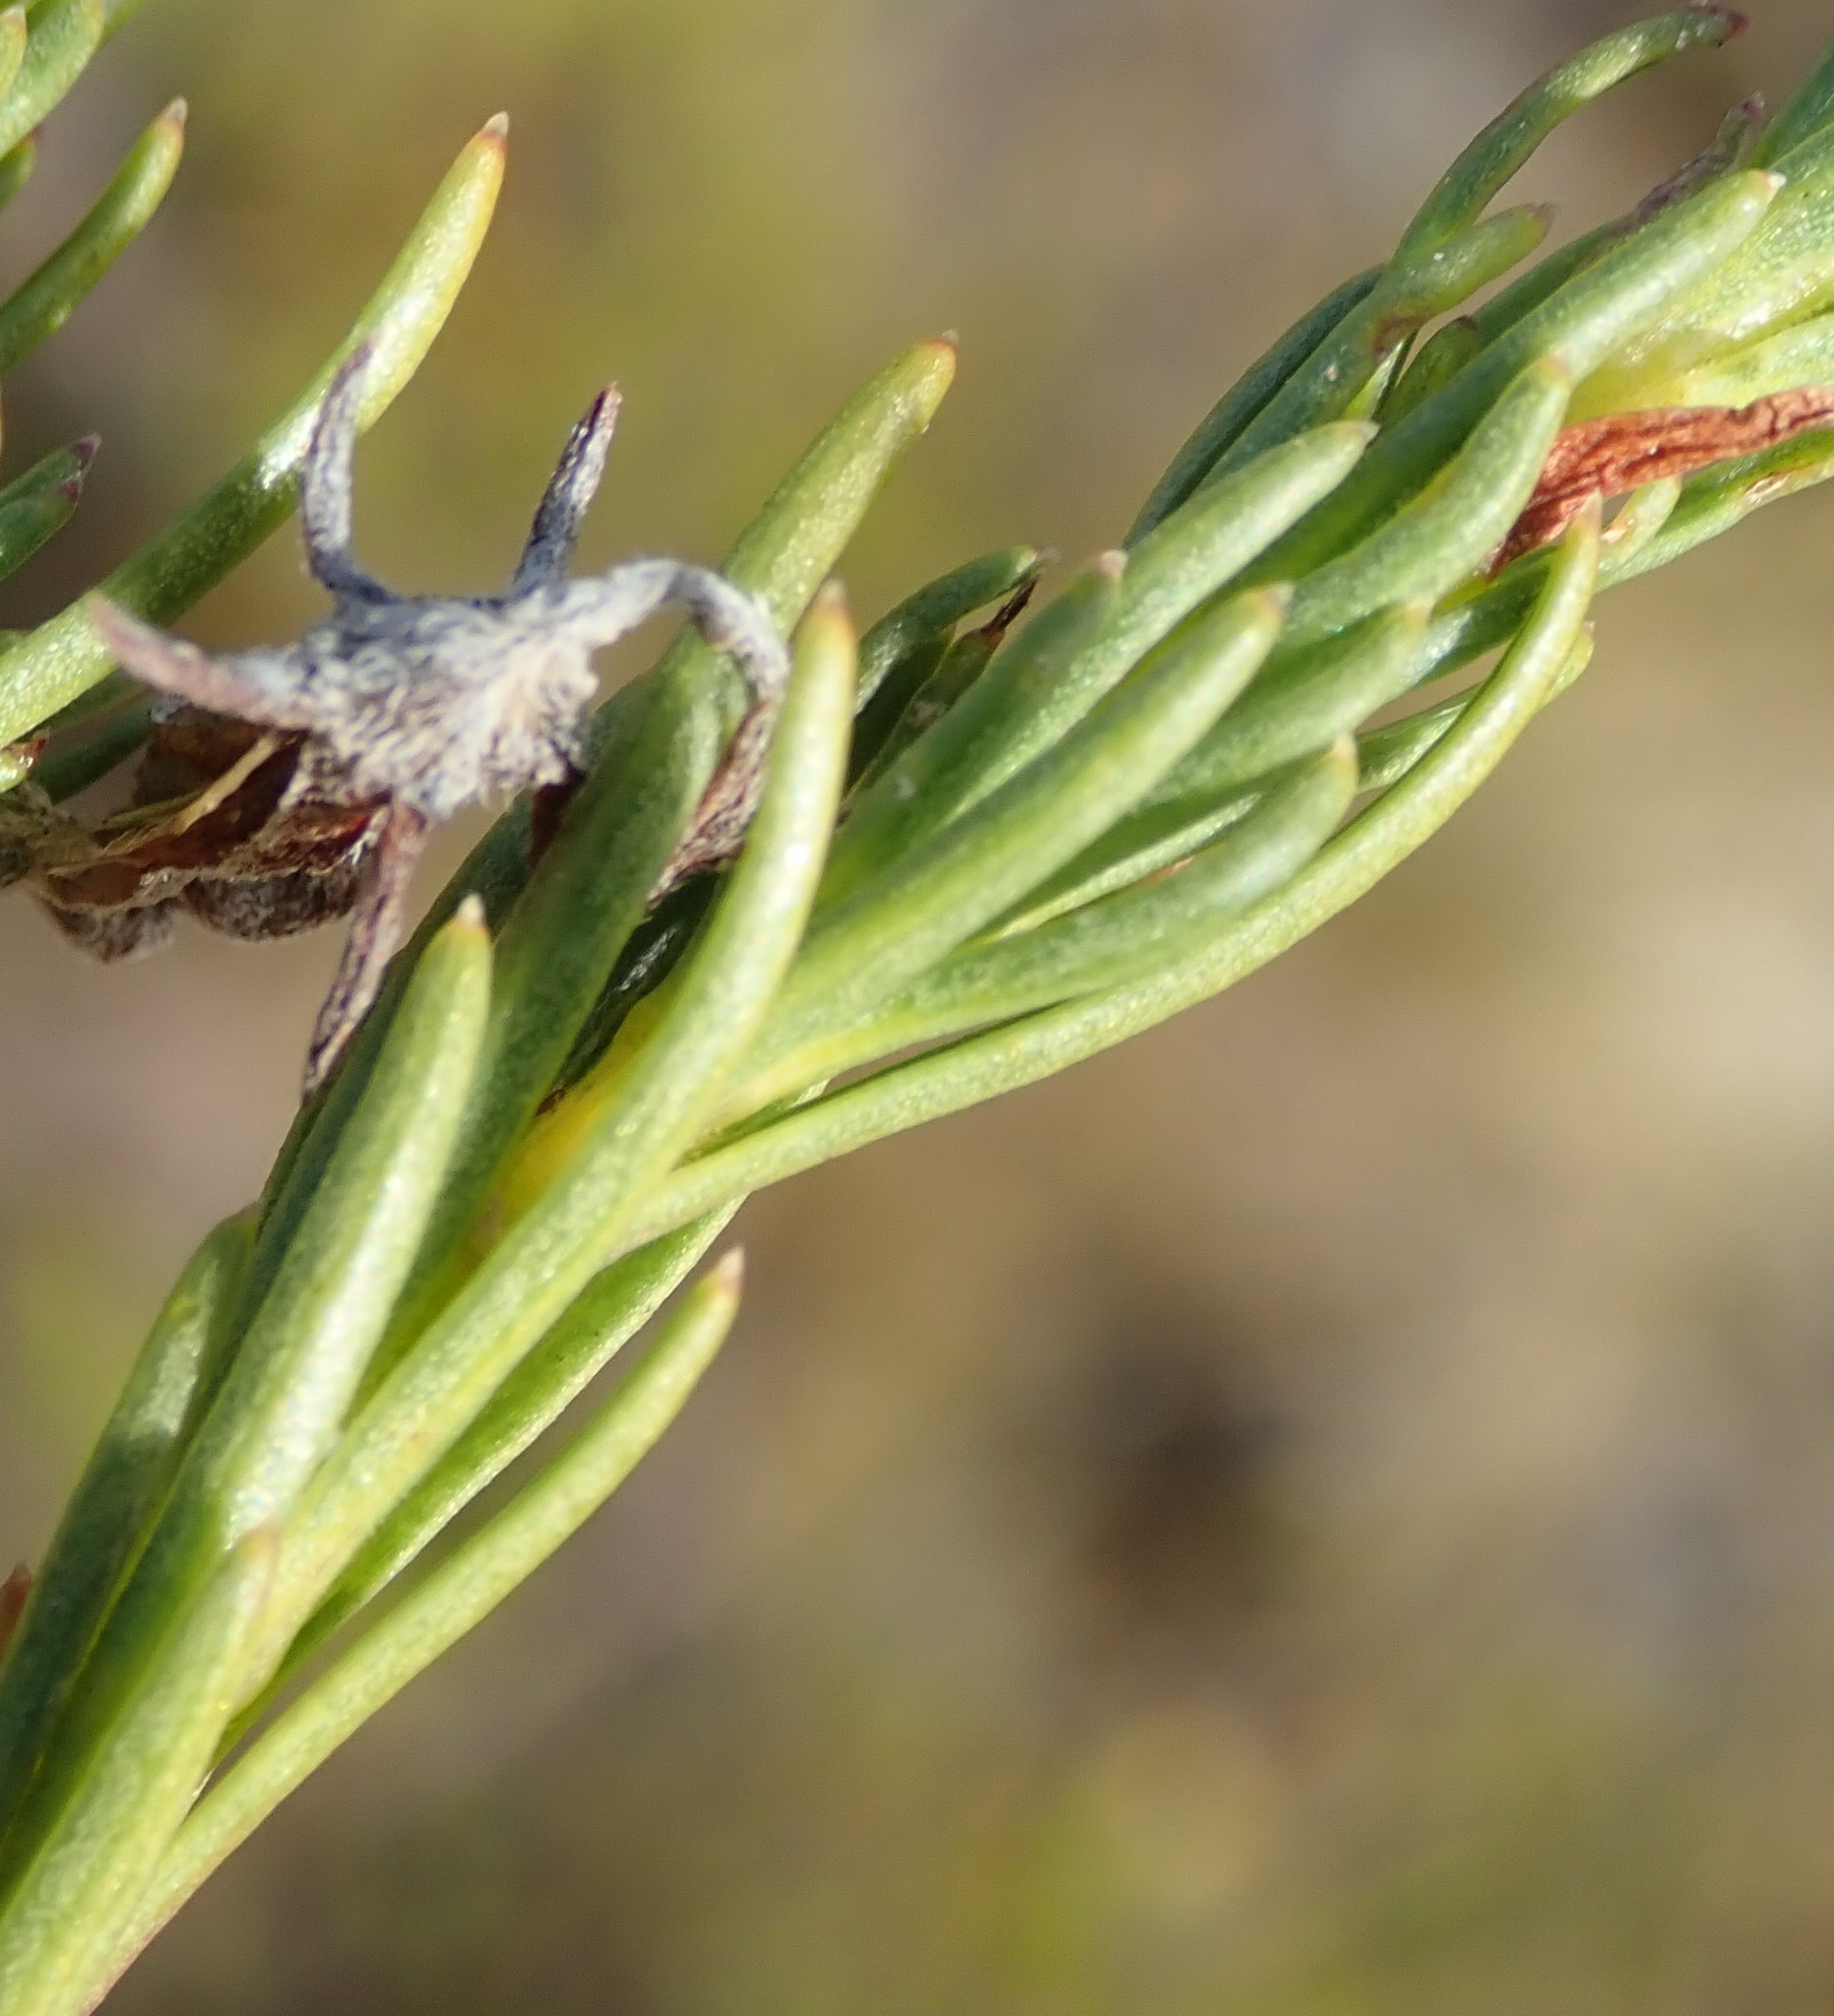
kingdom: Plantae
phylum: Tracheophyta
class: Magnoliopsida
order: Asterales
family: Campanulaceae
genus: Lobelia
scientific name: Lobelia pinifolia
